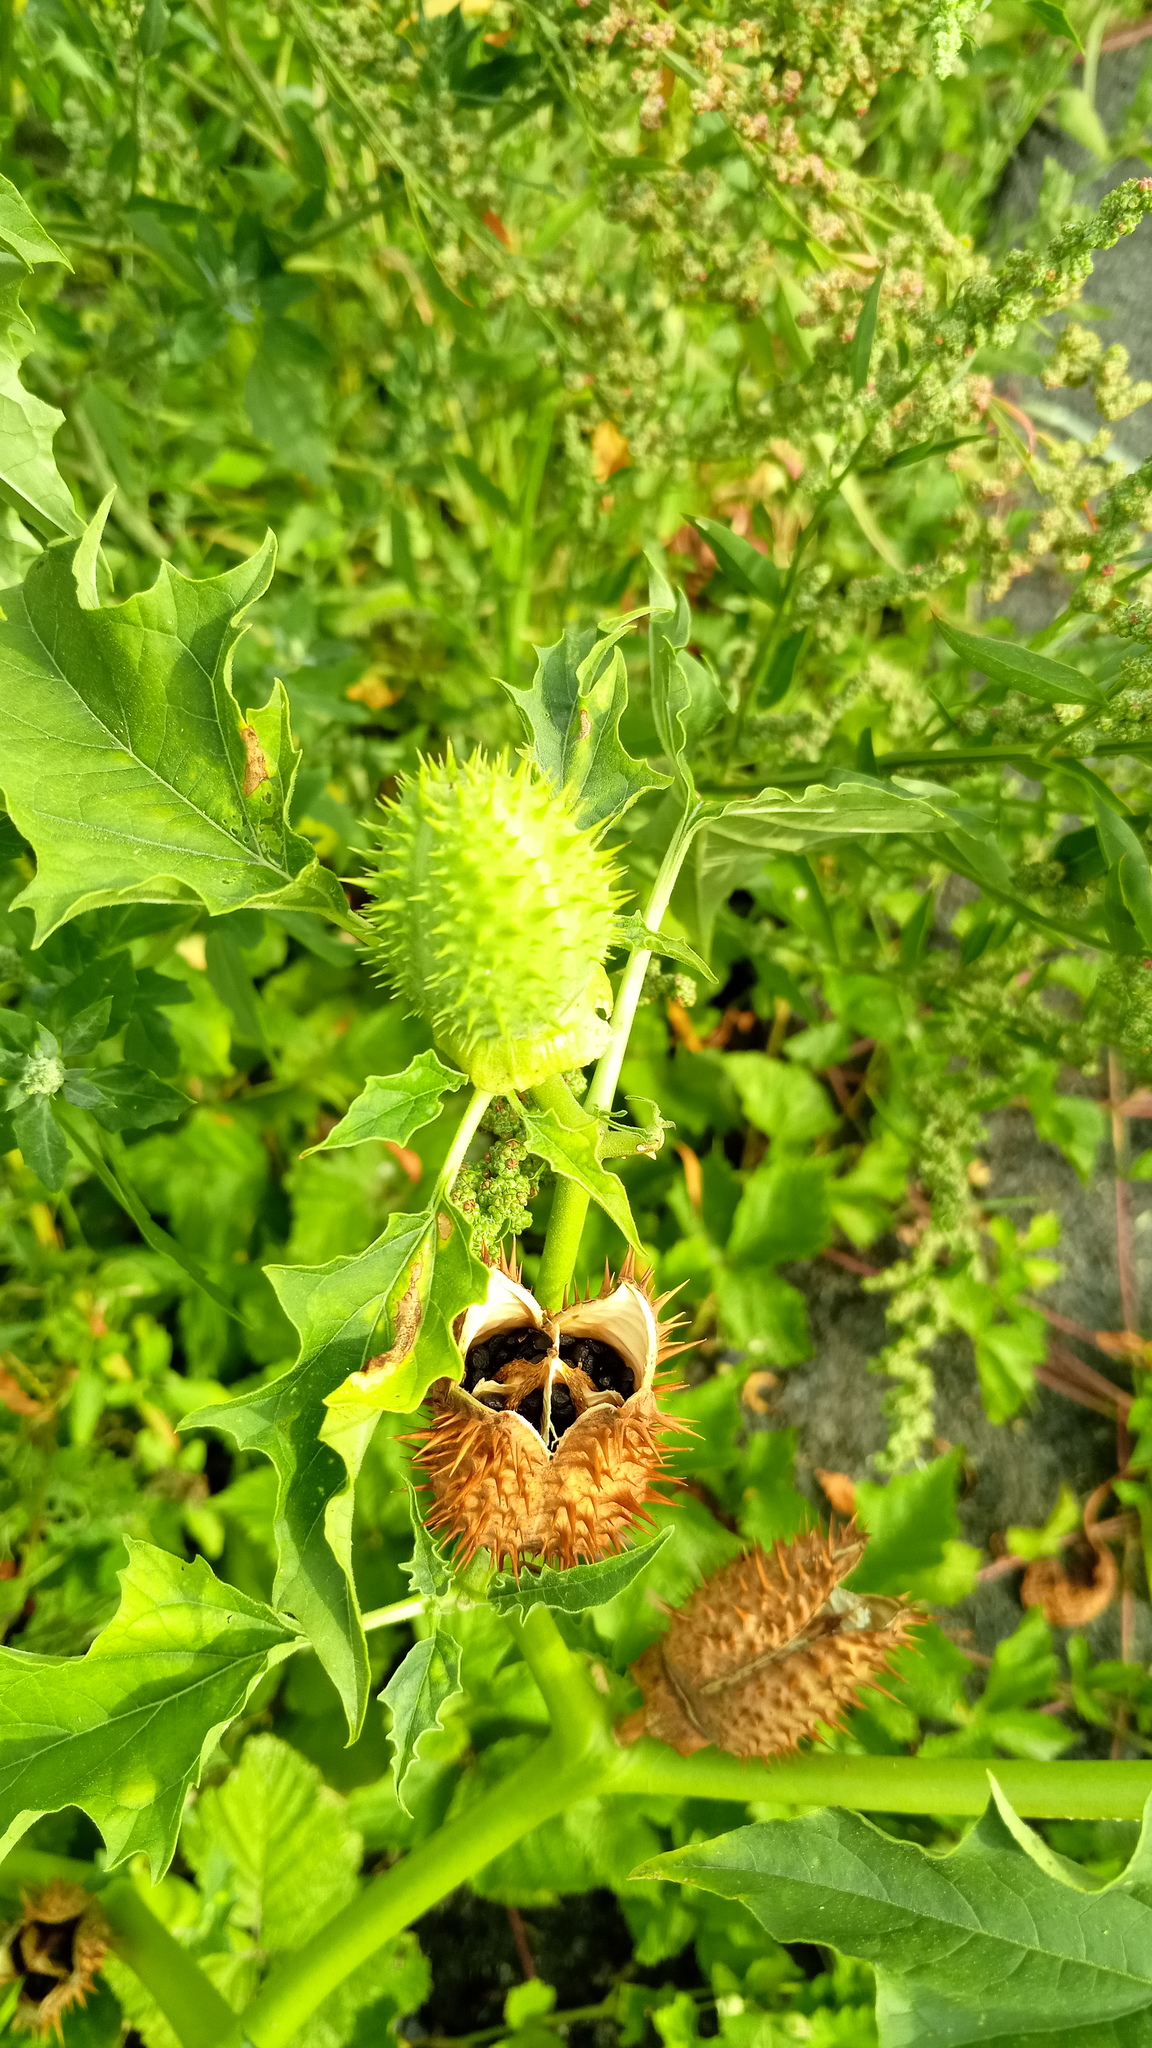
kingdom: Plantae
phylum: Tracheophyta
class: Magnoliopsida
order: Solanales
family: Solanaceae
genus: Datura
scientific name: Datura stramonium
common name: Thorn-apple
